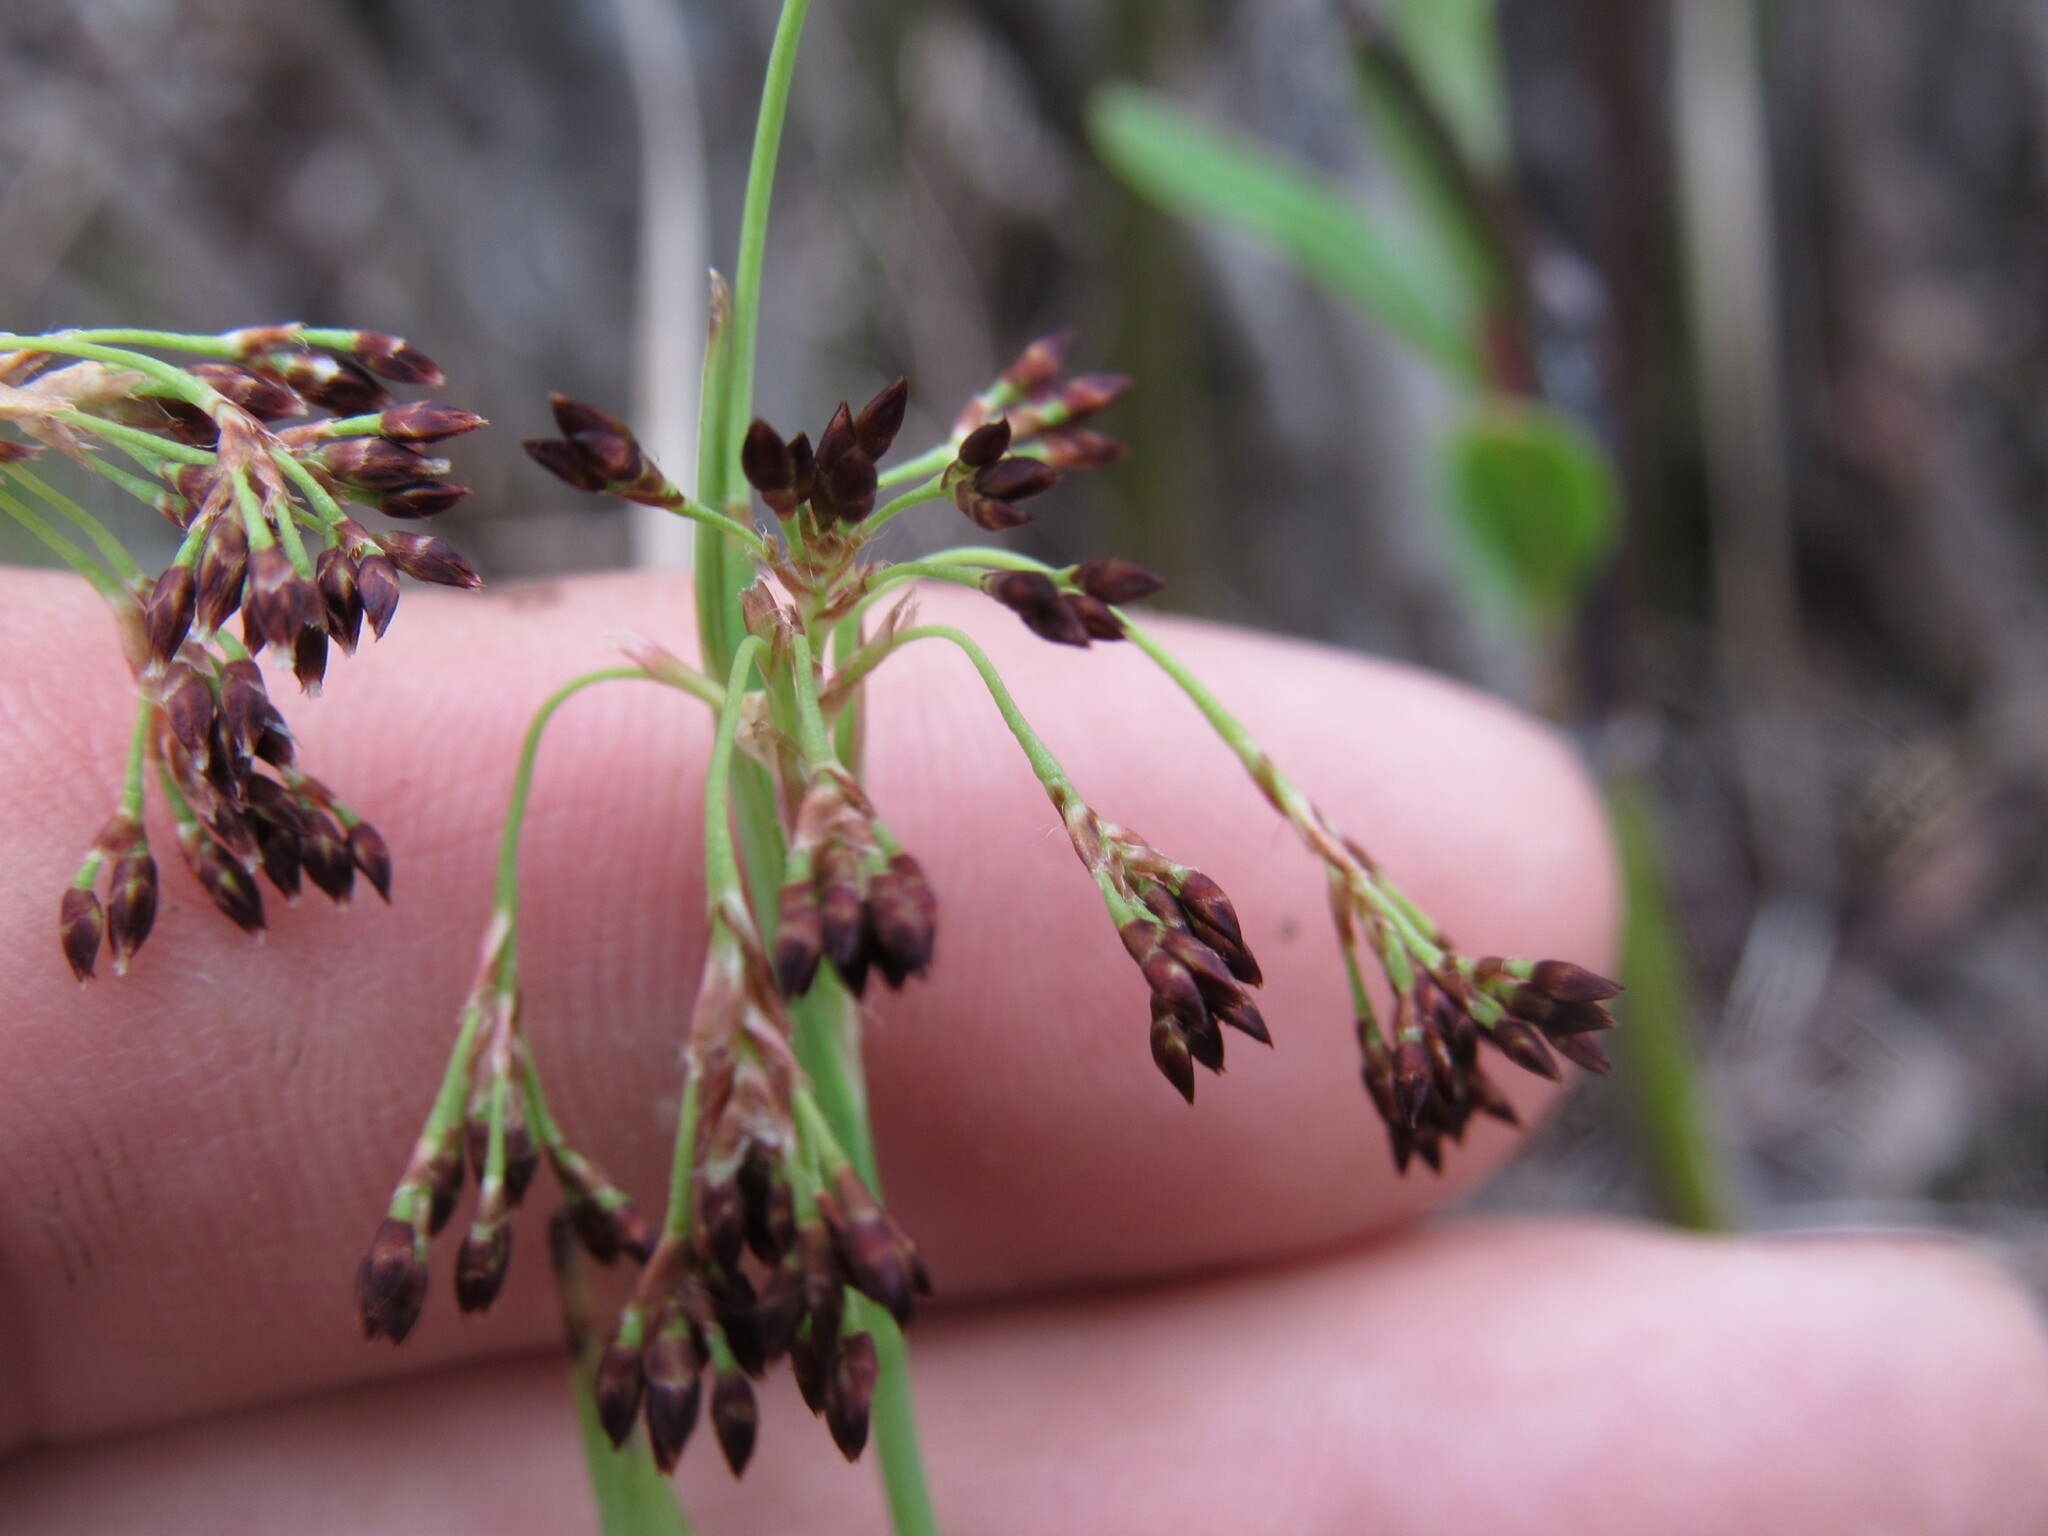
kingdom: Plantae
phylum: Tracheophyta
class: Liliopsida
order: Poales
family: Juncaceae
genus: Luzula
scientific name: Luzula parviflora
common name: Millet woodrush
